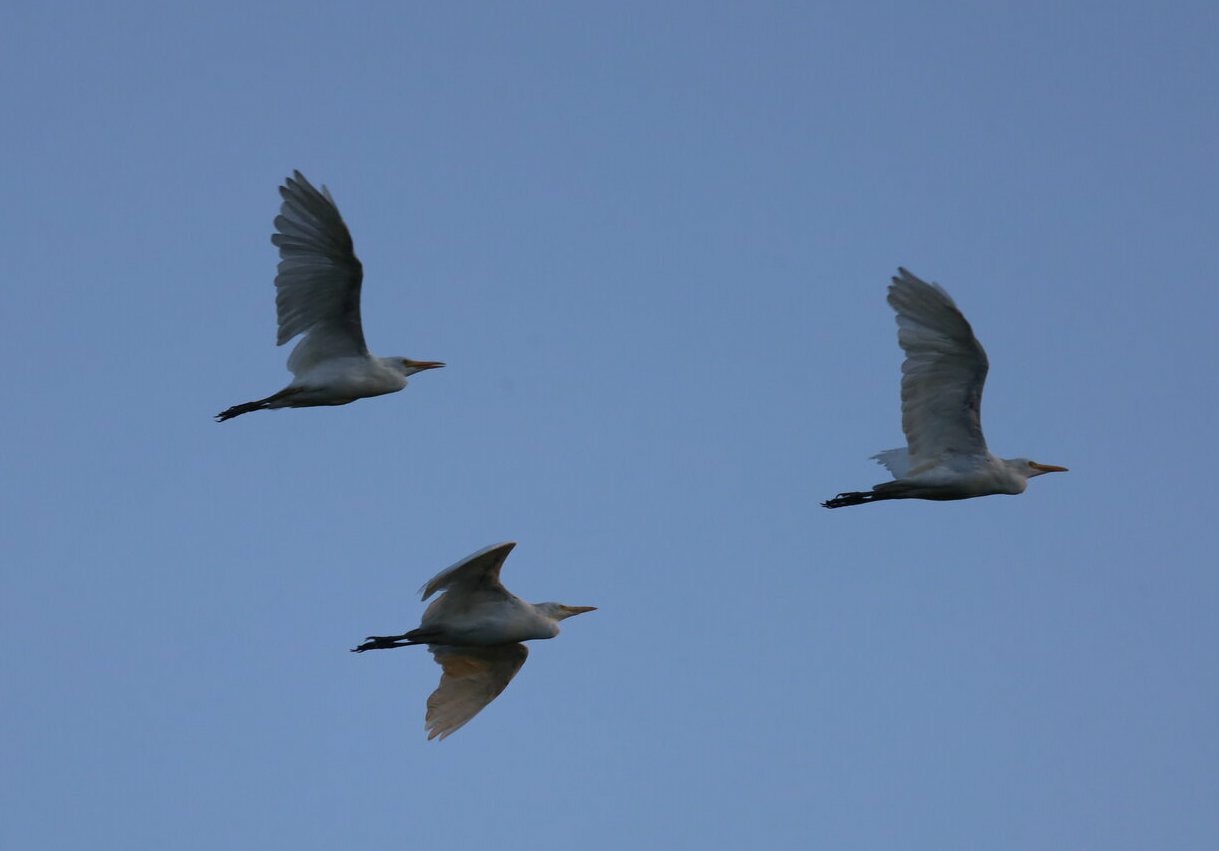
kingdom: Animalia
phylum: Chordata
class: Aves
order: Pelecaniformes
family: Ardeidae
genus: Bubulcus
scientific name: Bubulcus ibis
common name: Cattle egret
